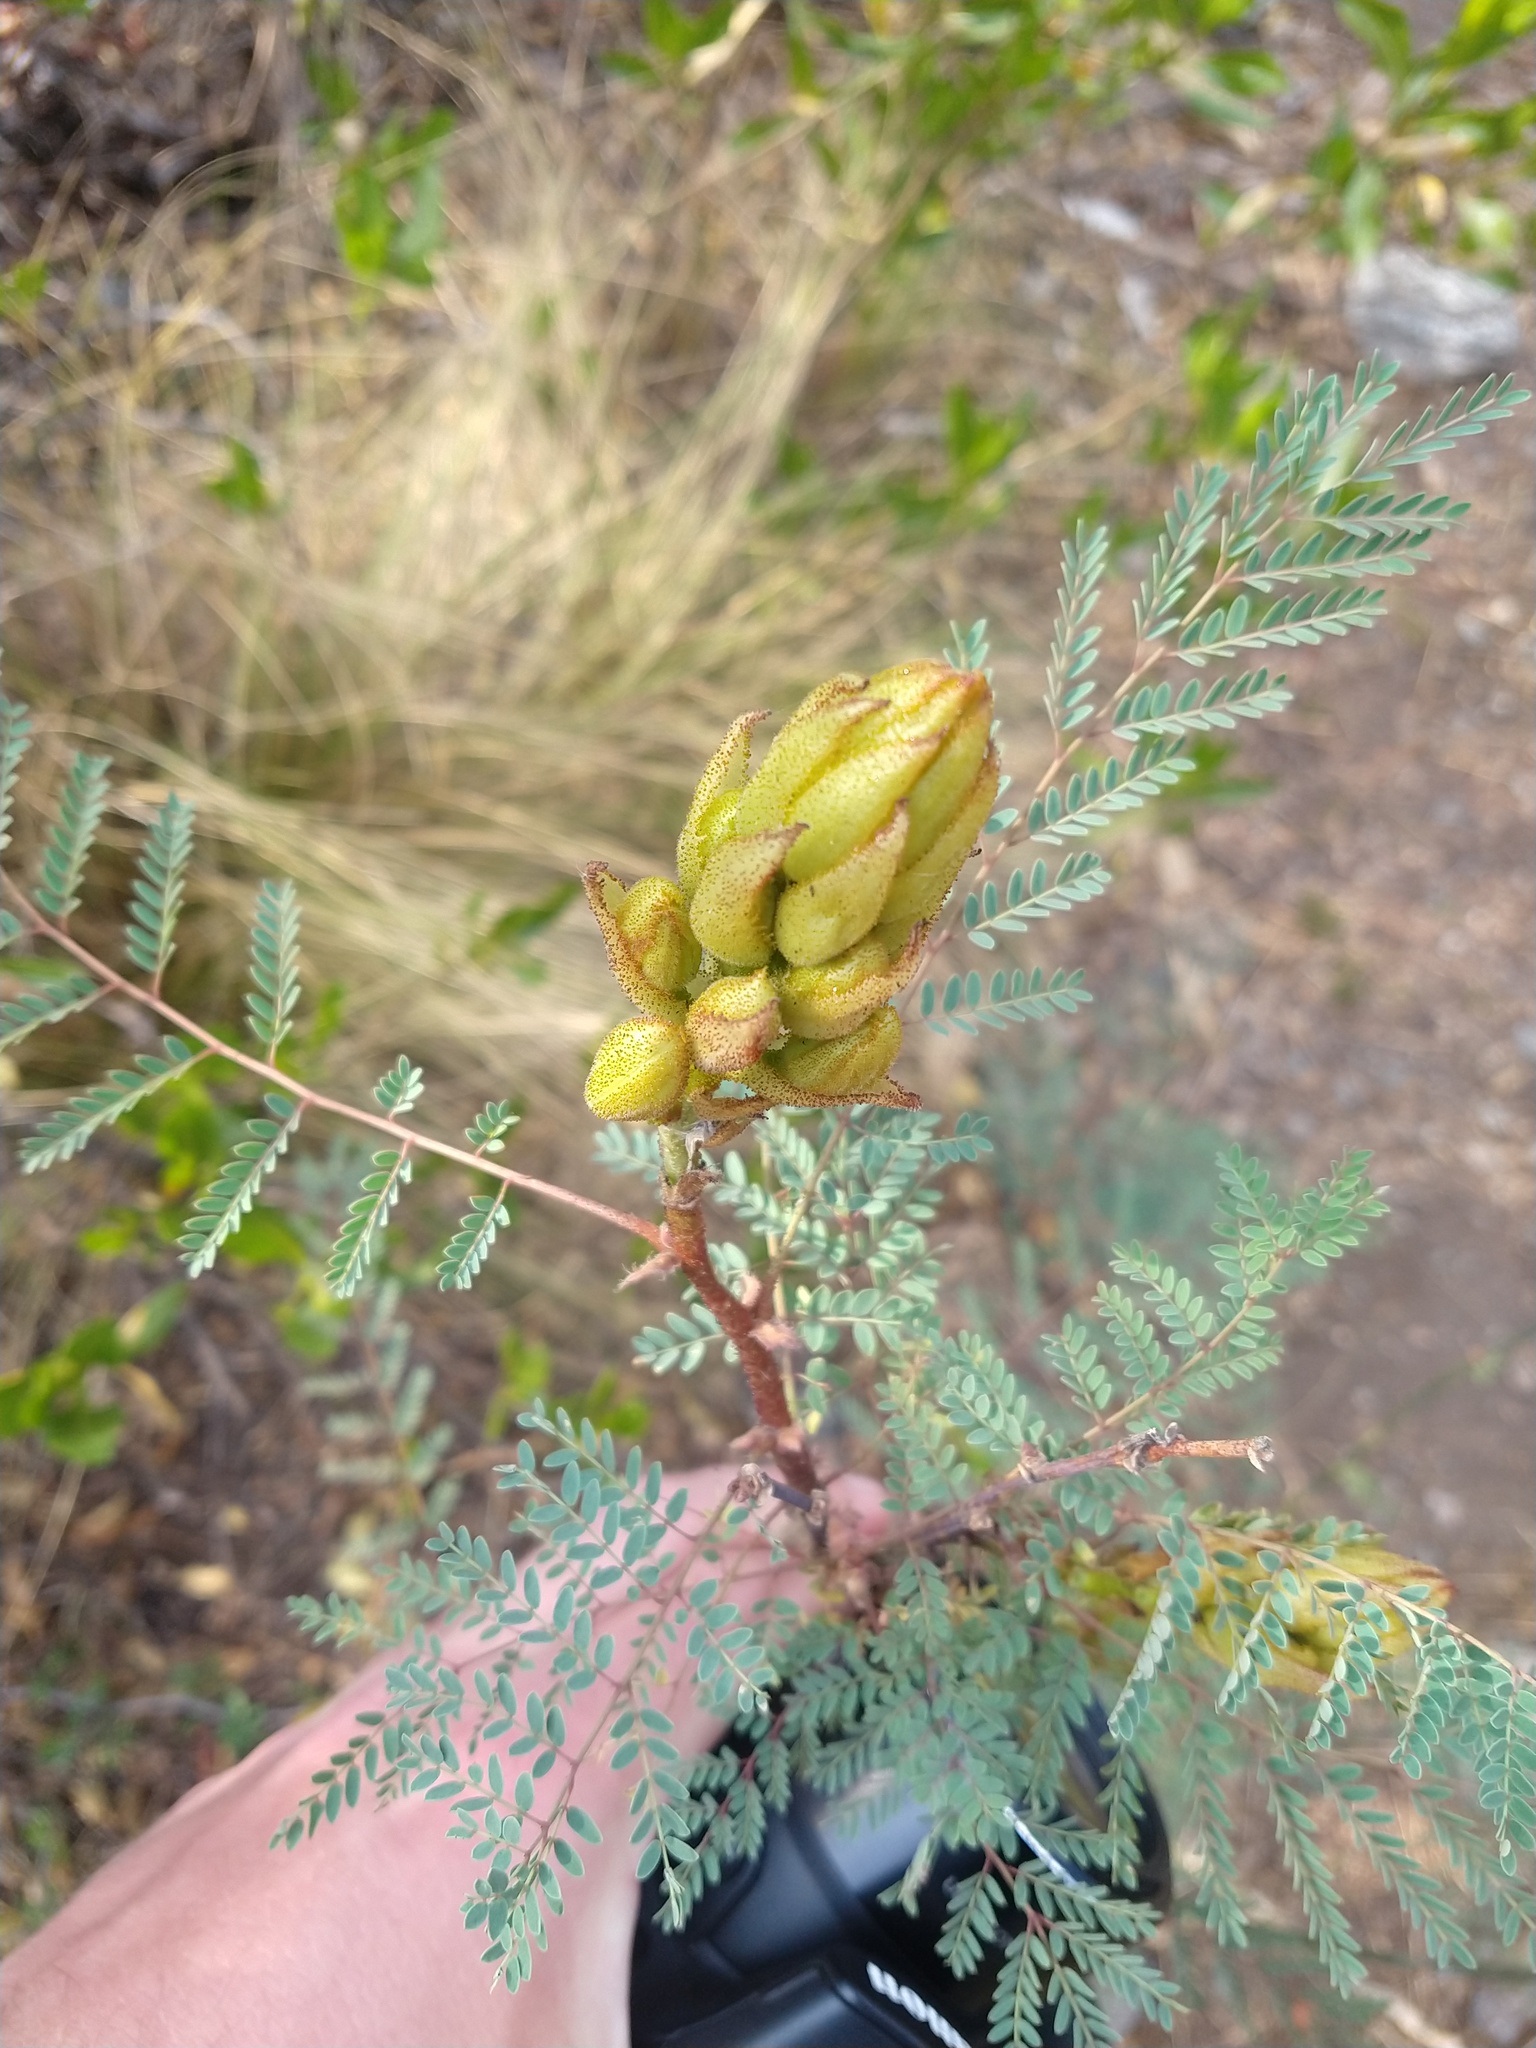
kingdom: Plantae
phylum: Tracheophyta
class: Magnoliopsida
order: Fabales
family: Fabaceae
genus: Erythrostemon
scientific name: Erythrostemon gilliesii
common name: Bird-of-paradise shrub
